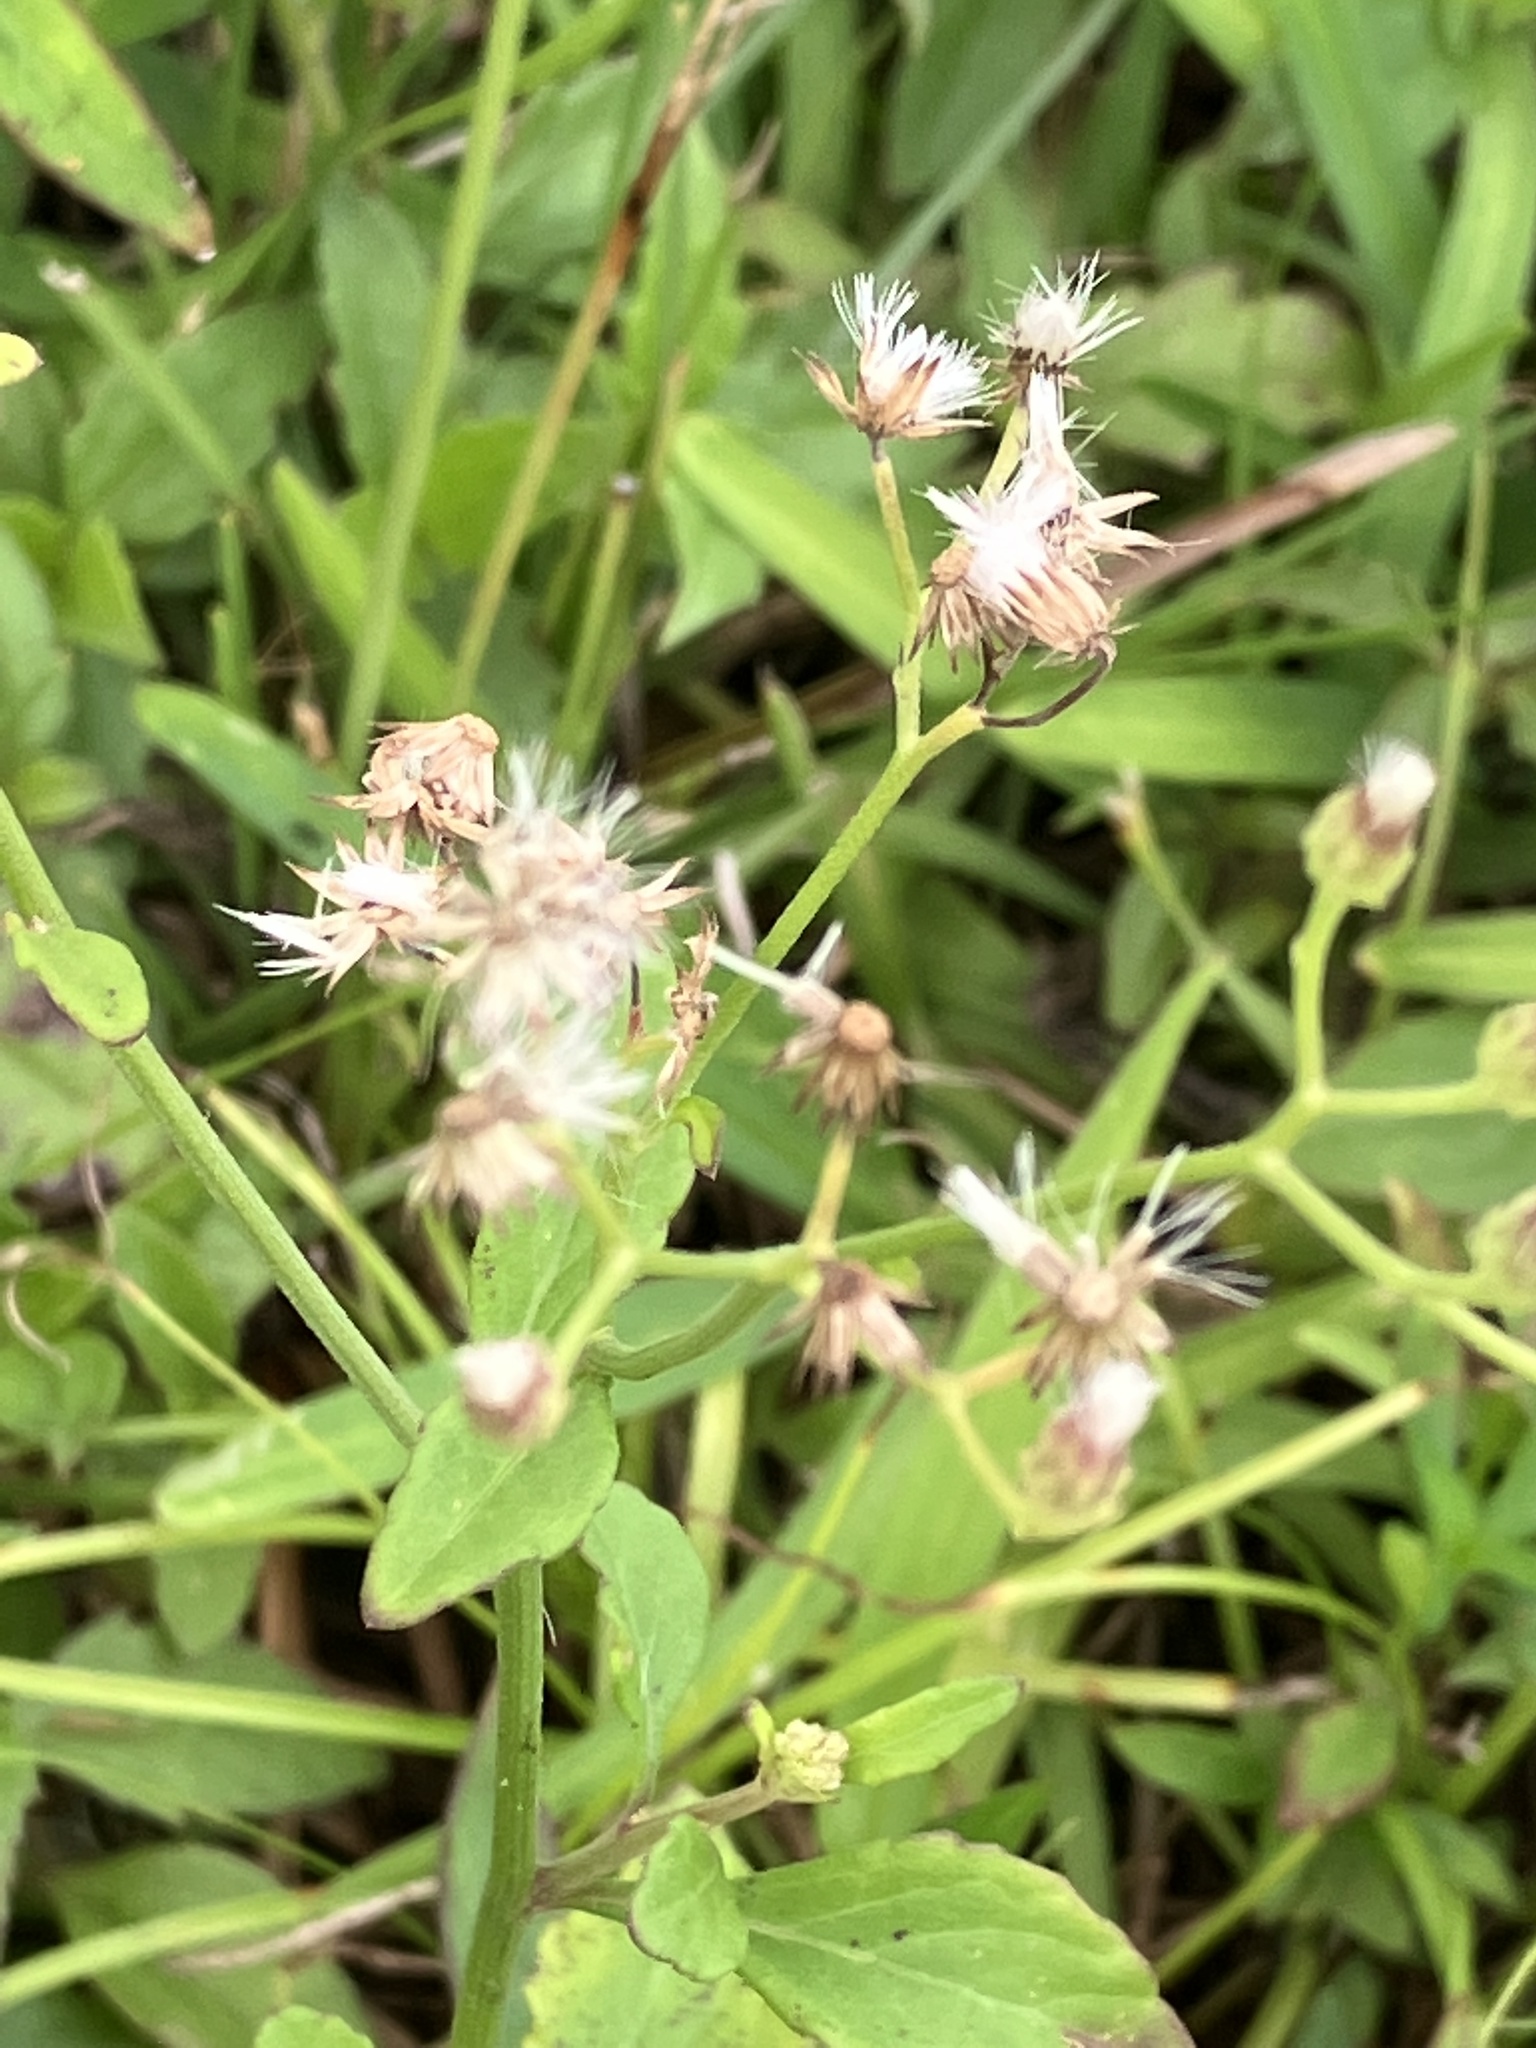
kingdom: Plantae
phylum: Tracheophyta
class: Magnoliopsida
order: Asterales
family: Asteraceae
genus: Cyanthillium
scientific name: Cyanthillium cinereum
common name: Little ironweed
